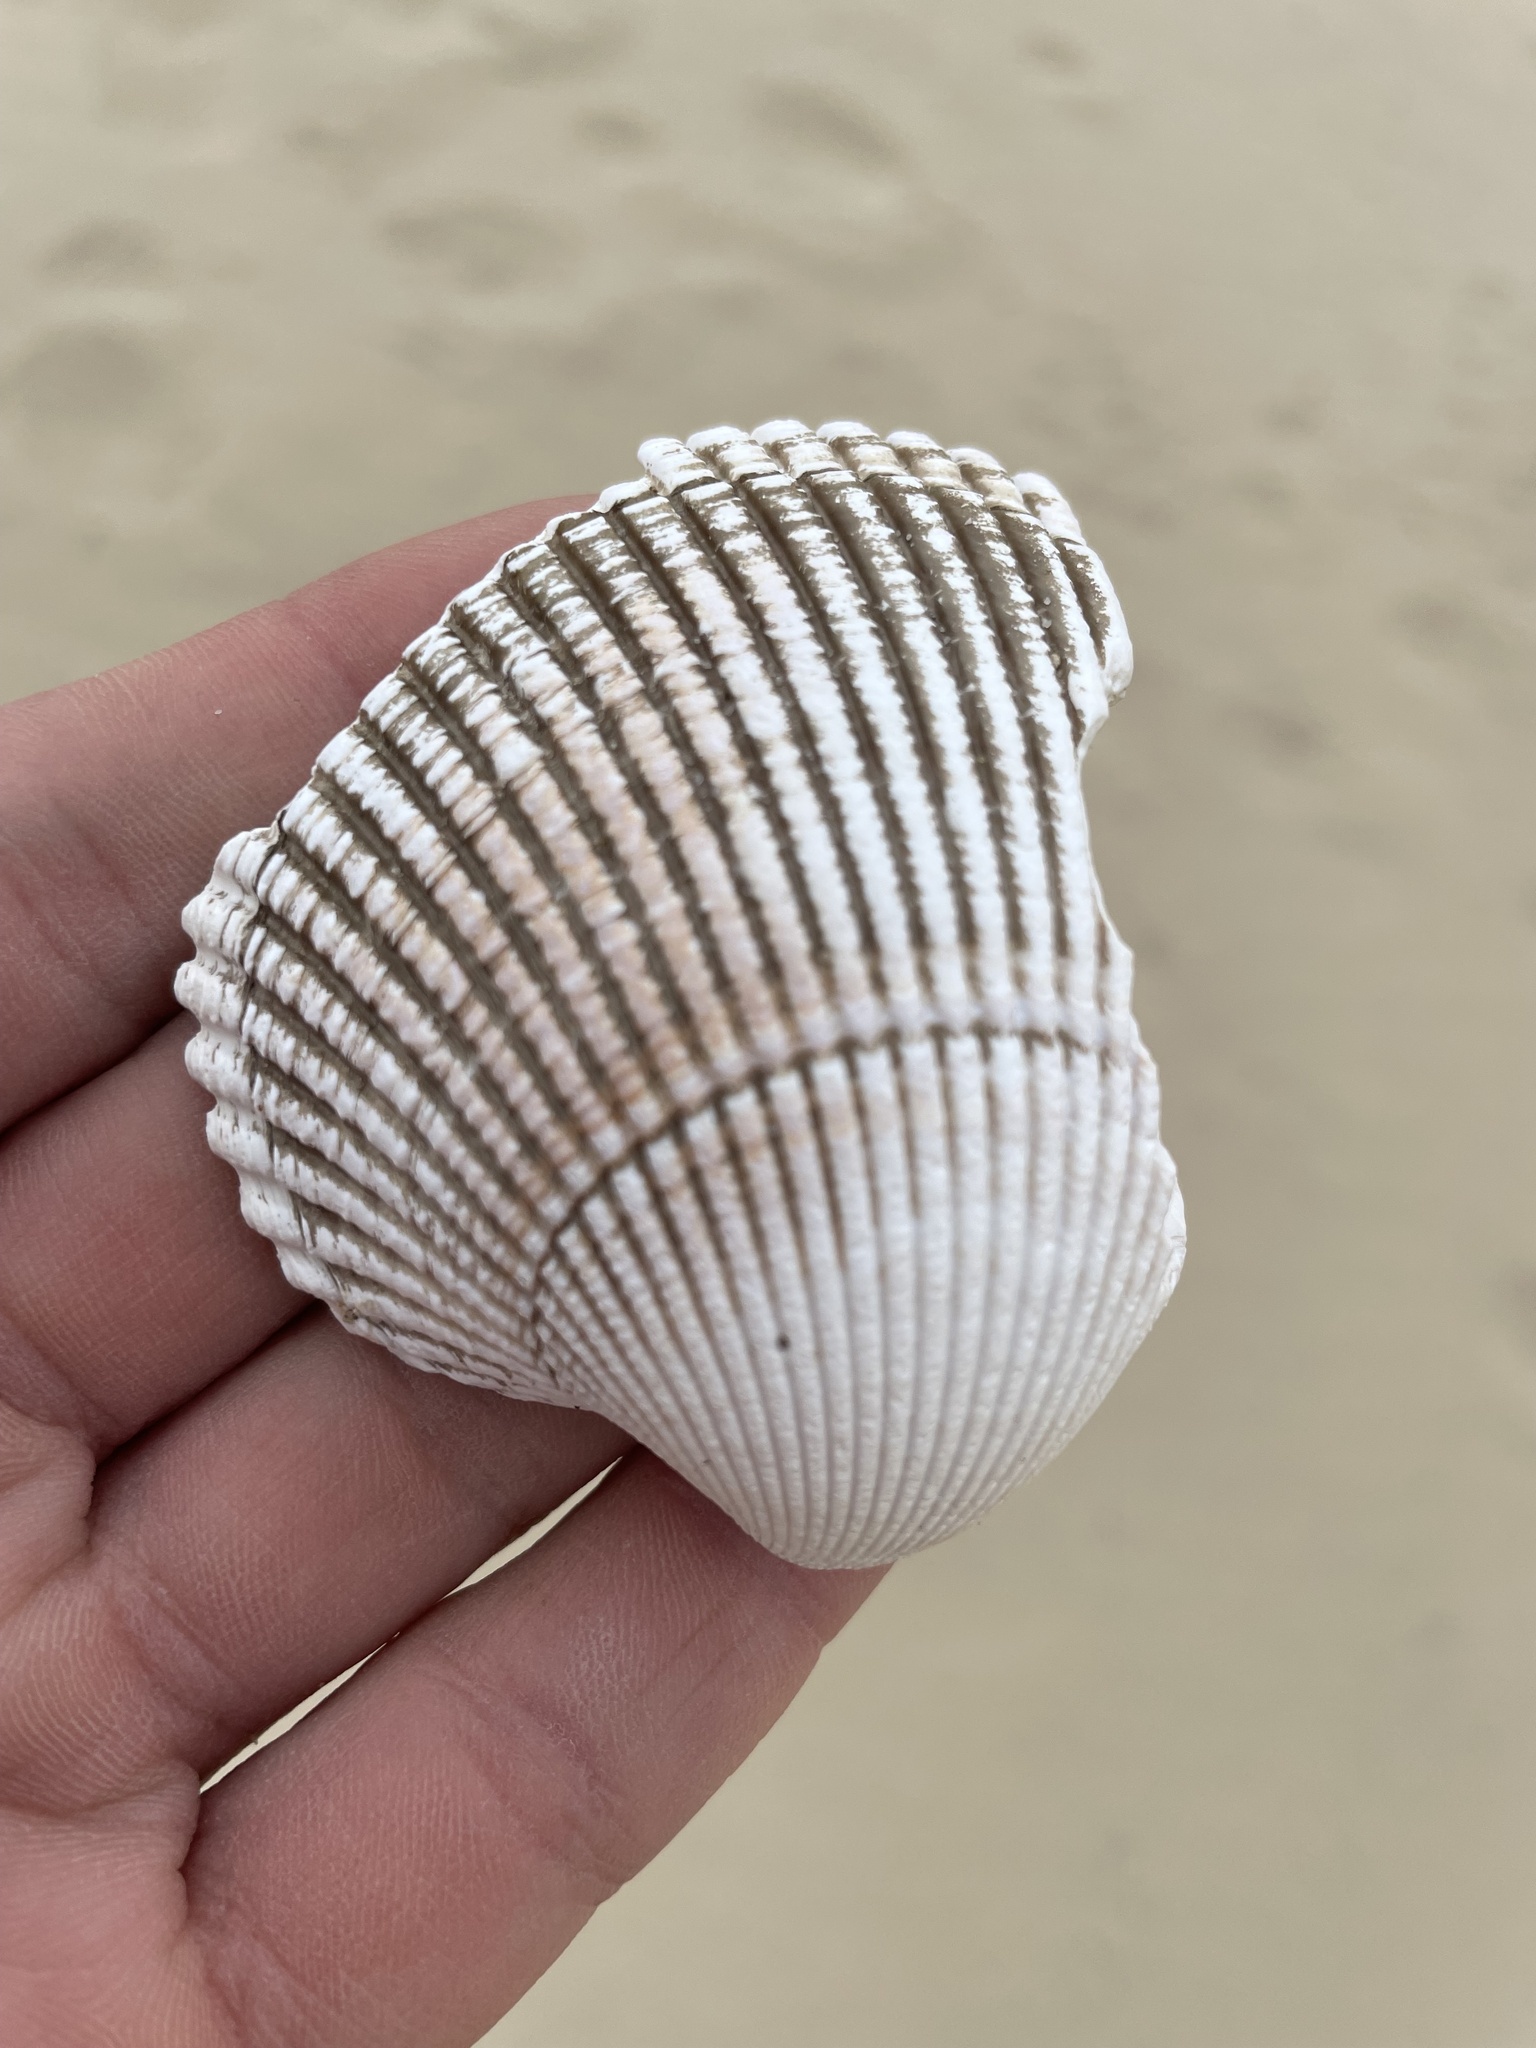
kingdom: Animalia
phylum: Mollusca
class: Bivalvia
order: Cardiida
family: Cardiidae
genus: Clinocardium
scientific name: Clinocardium nuttallii
